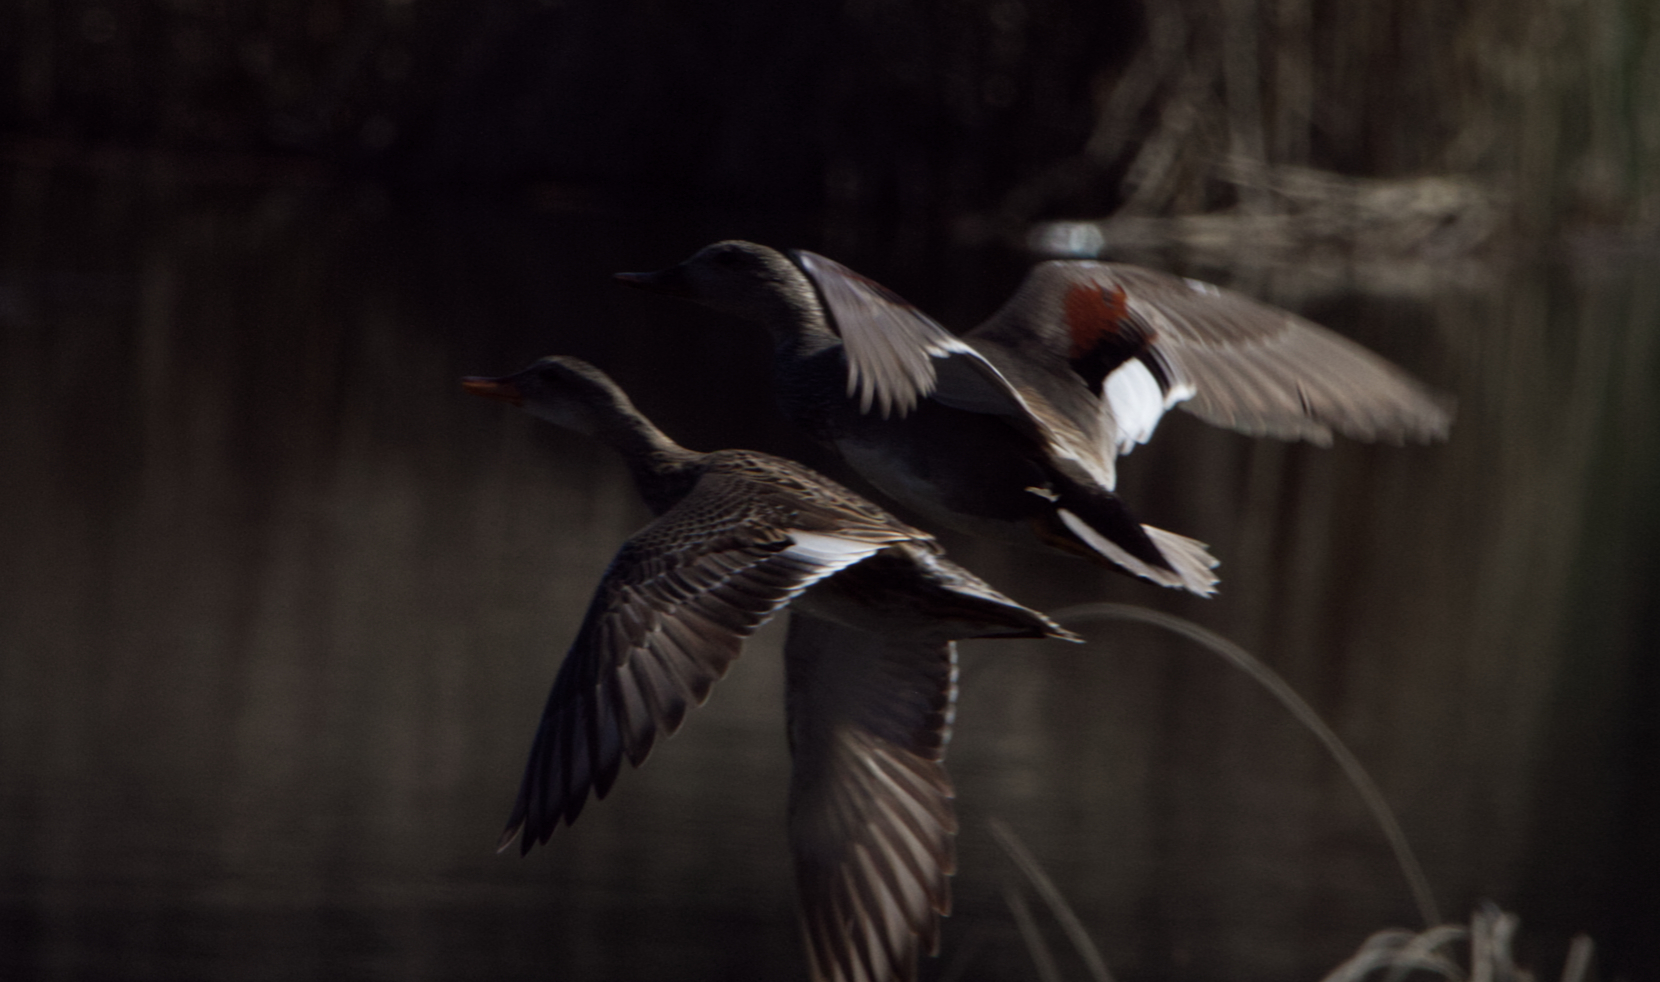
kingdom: Animalia
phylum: Chordata
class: Aves
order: Anseriformes
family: Anatidae
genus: Mareca
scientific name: Mareca strepera
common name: Gadwall
